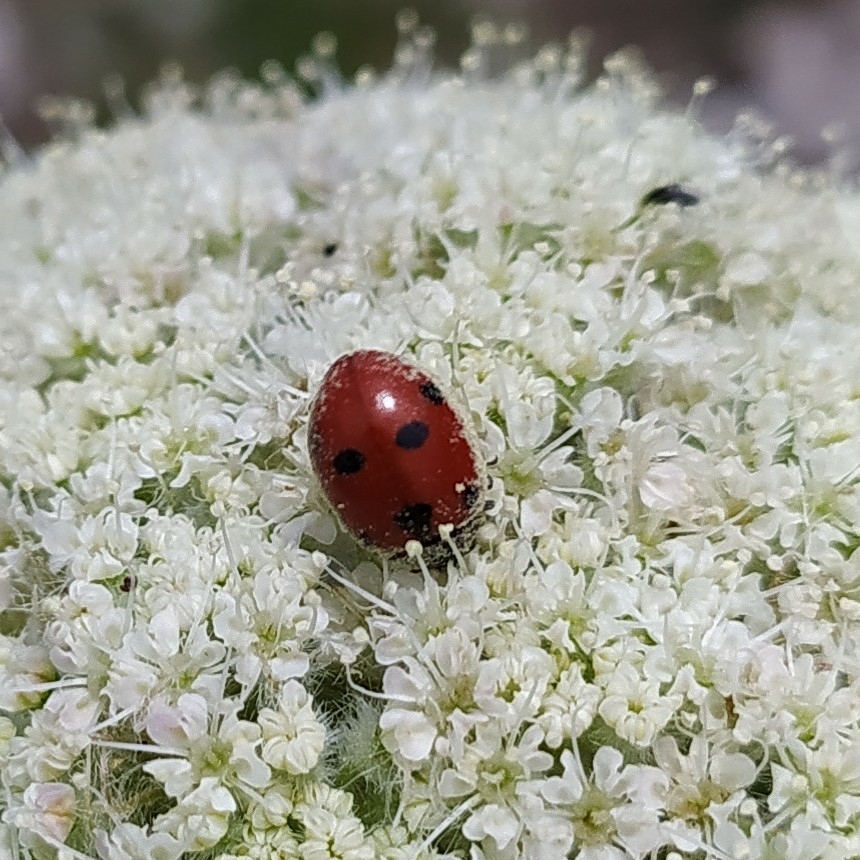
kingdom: Animalia
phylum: Arthropoda
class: Insecta
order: Coleoptera
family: Coccinellidae
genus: Coccinella
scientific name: Coccinella septempunctata
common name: Sevenspotted lady beetle
